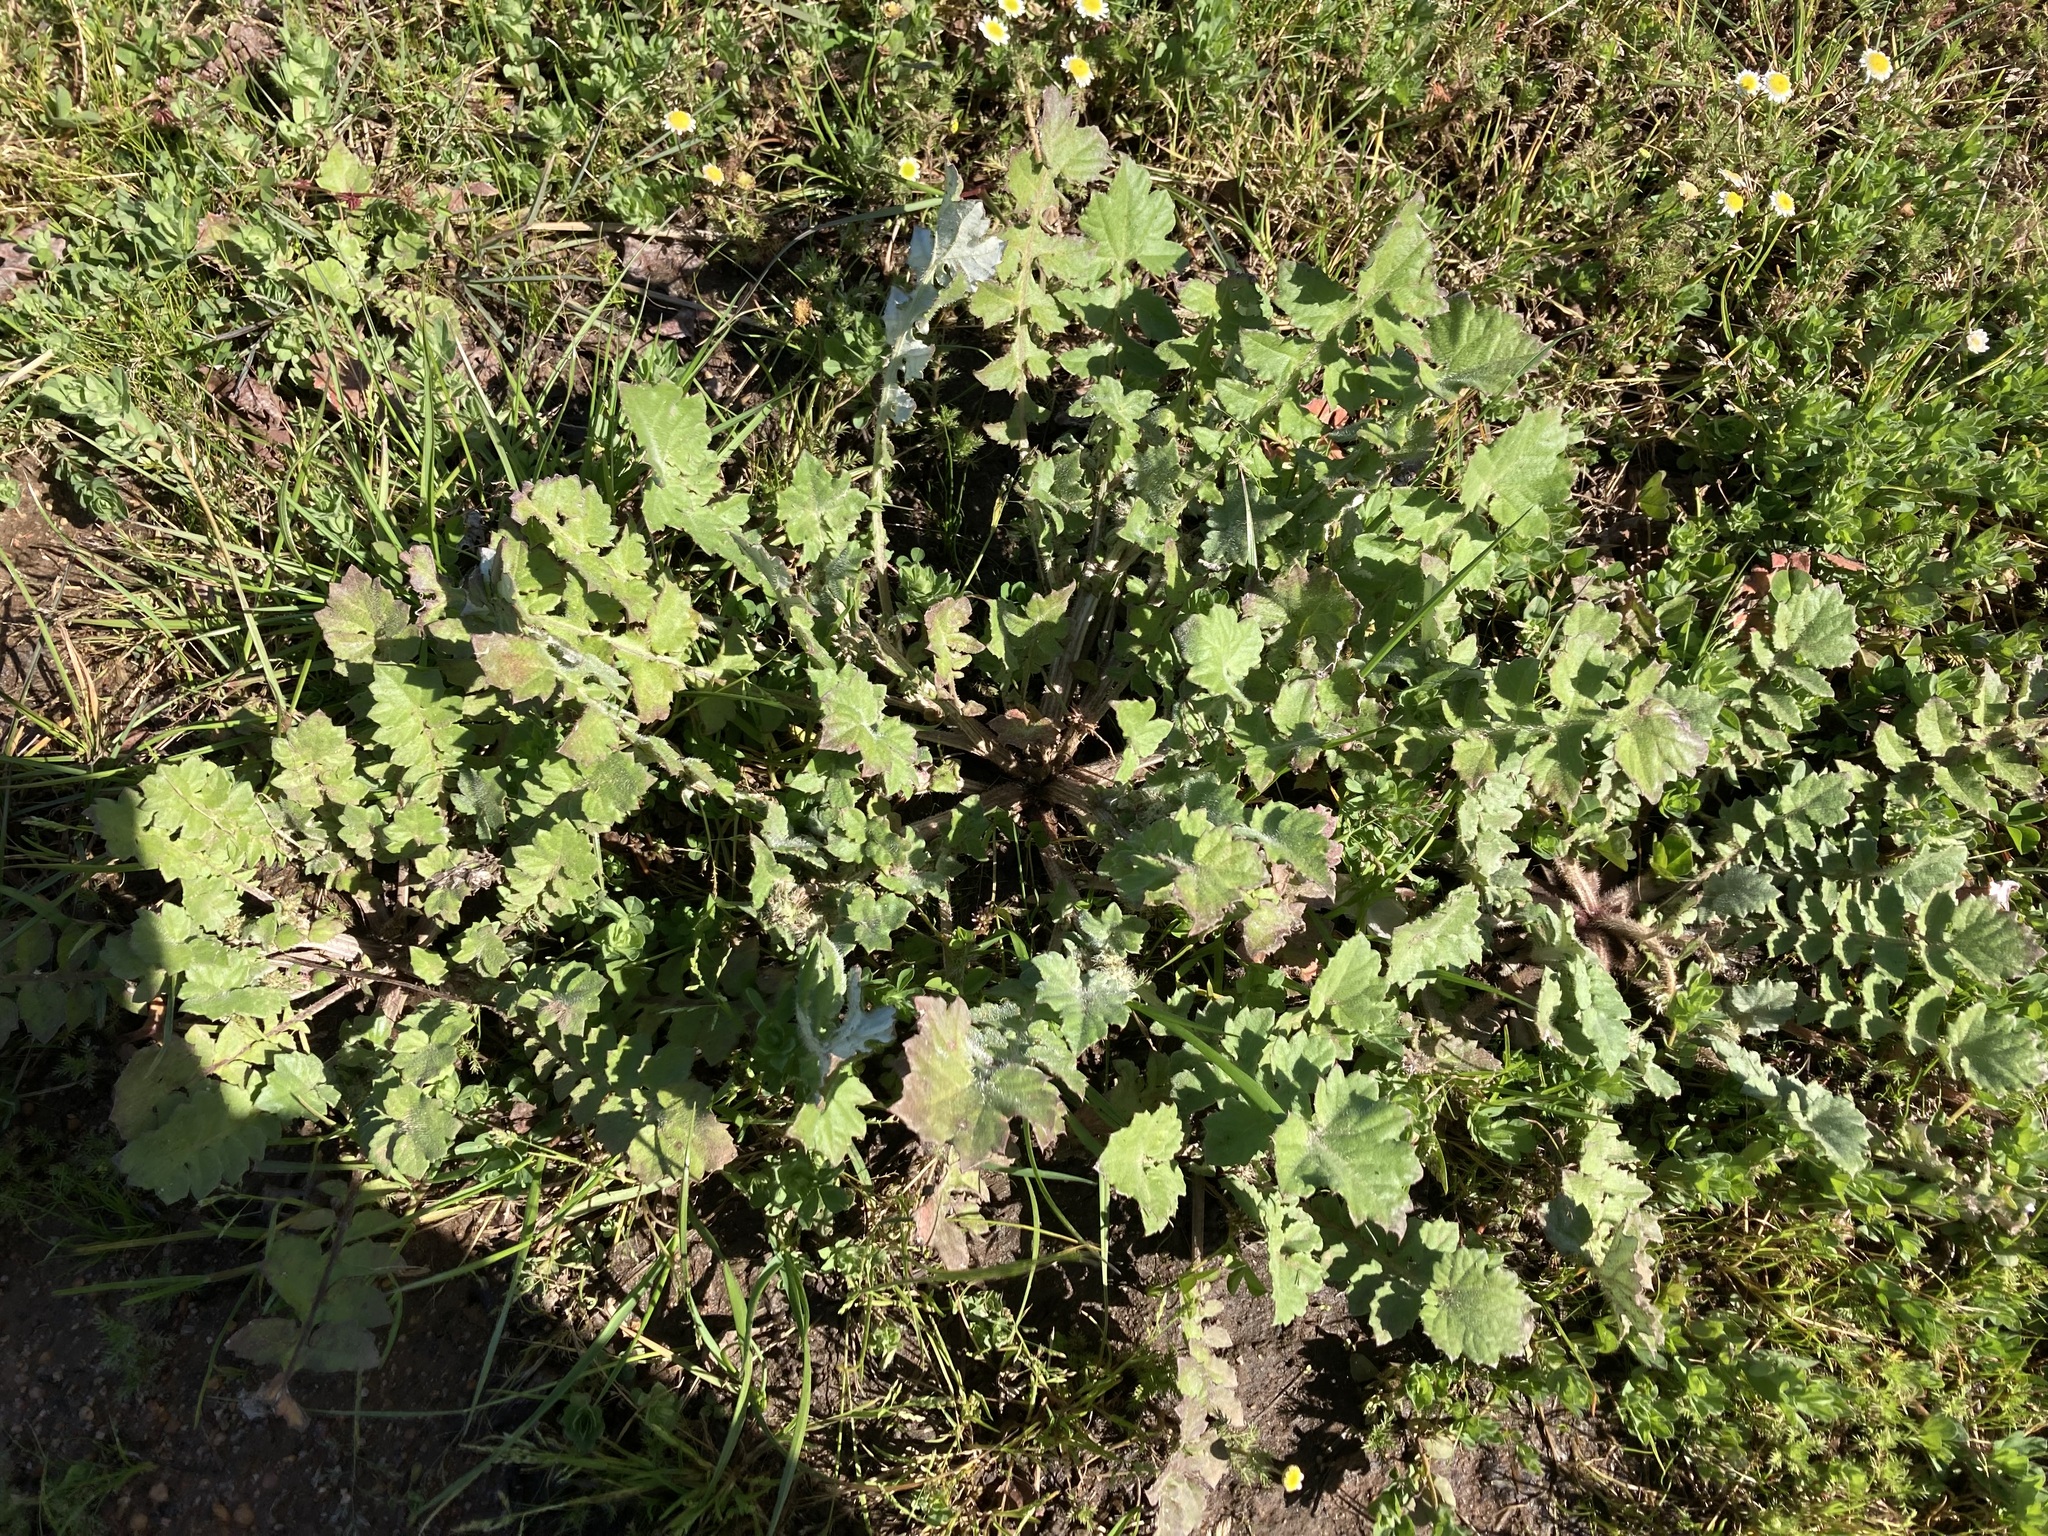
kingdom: Plantae
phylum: Tracheophyta
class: Magnoliopsida
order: Asterales
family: Asteraceae
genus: Arctotheca
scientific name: Arctotheca calendula
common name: Capeweed
